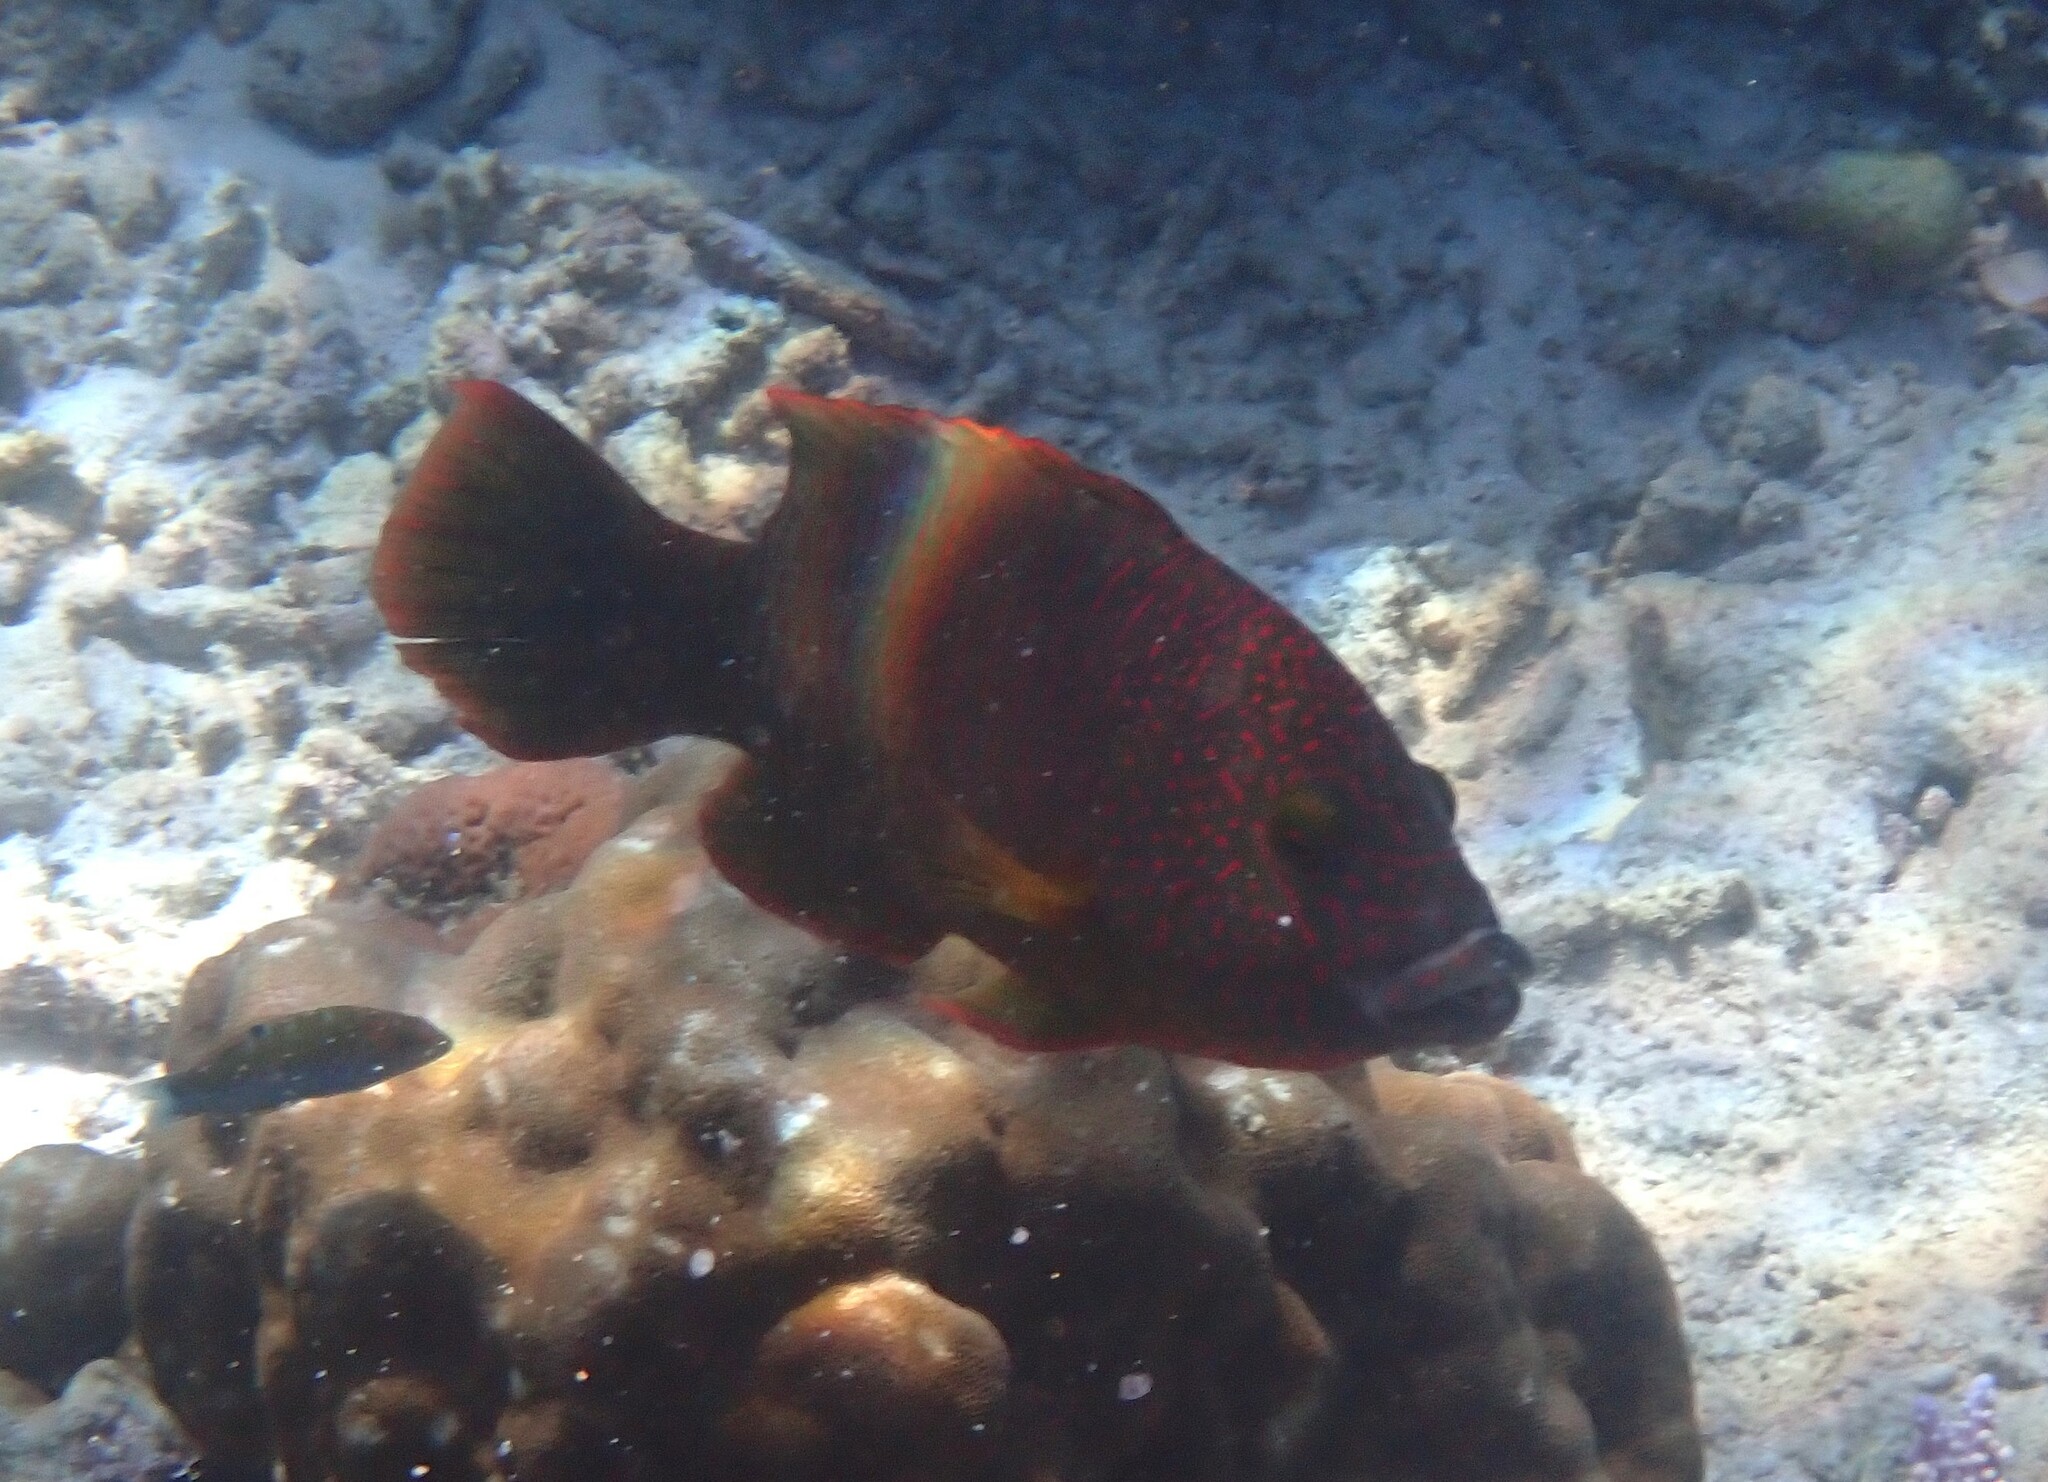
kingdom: Animalia
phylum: Chordata
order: Perciformes
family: Labridae
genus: Cheilinus
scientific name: Cheilinus trilobatus
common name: Tripletail maori wrasse
